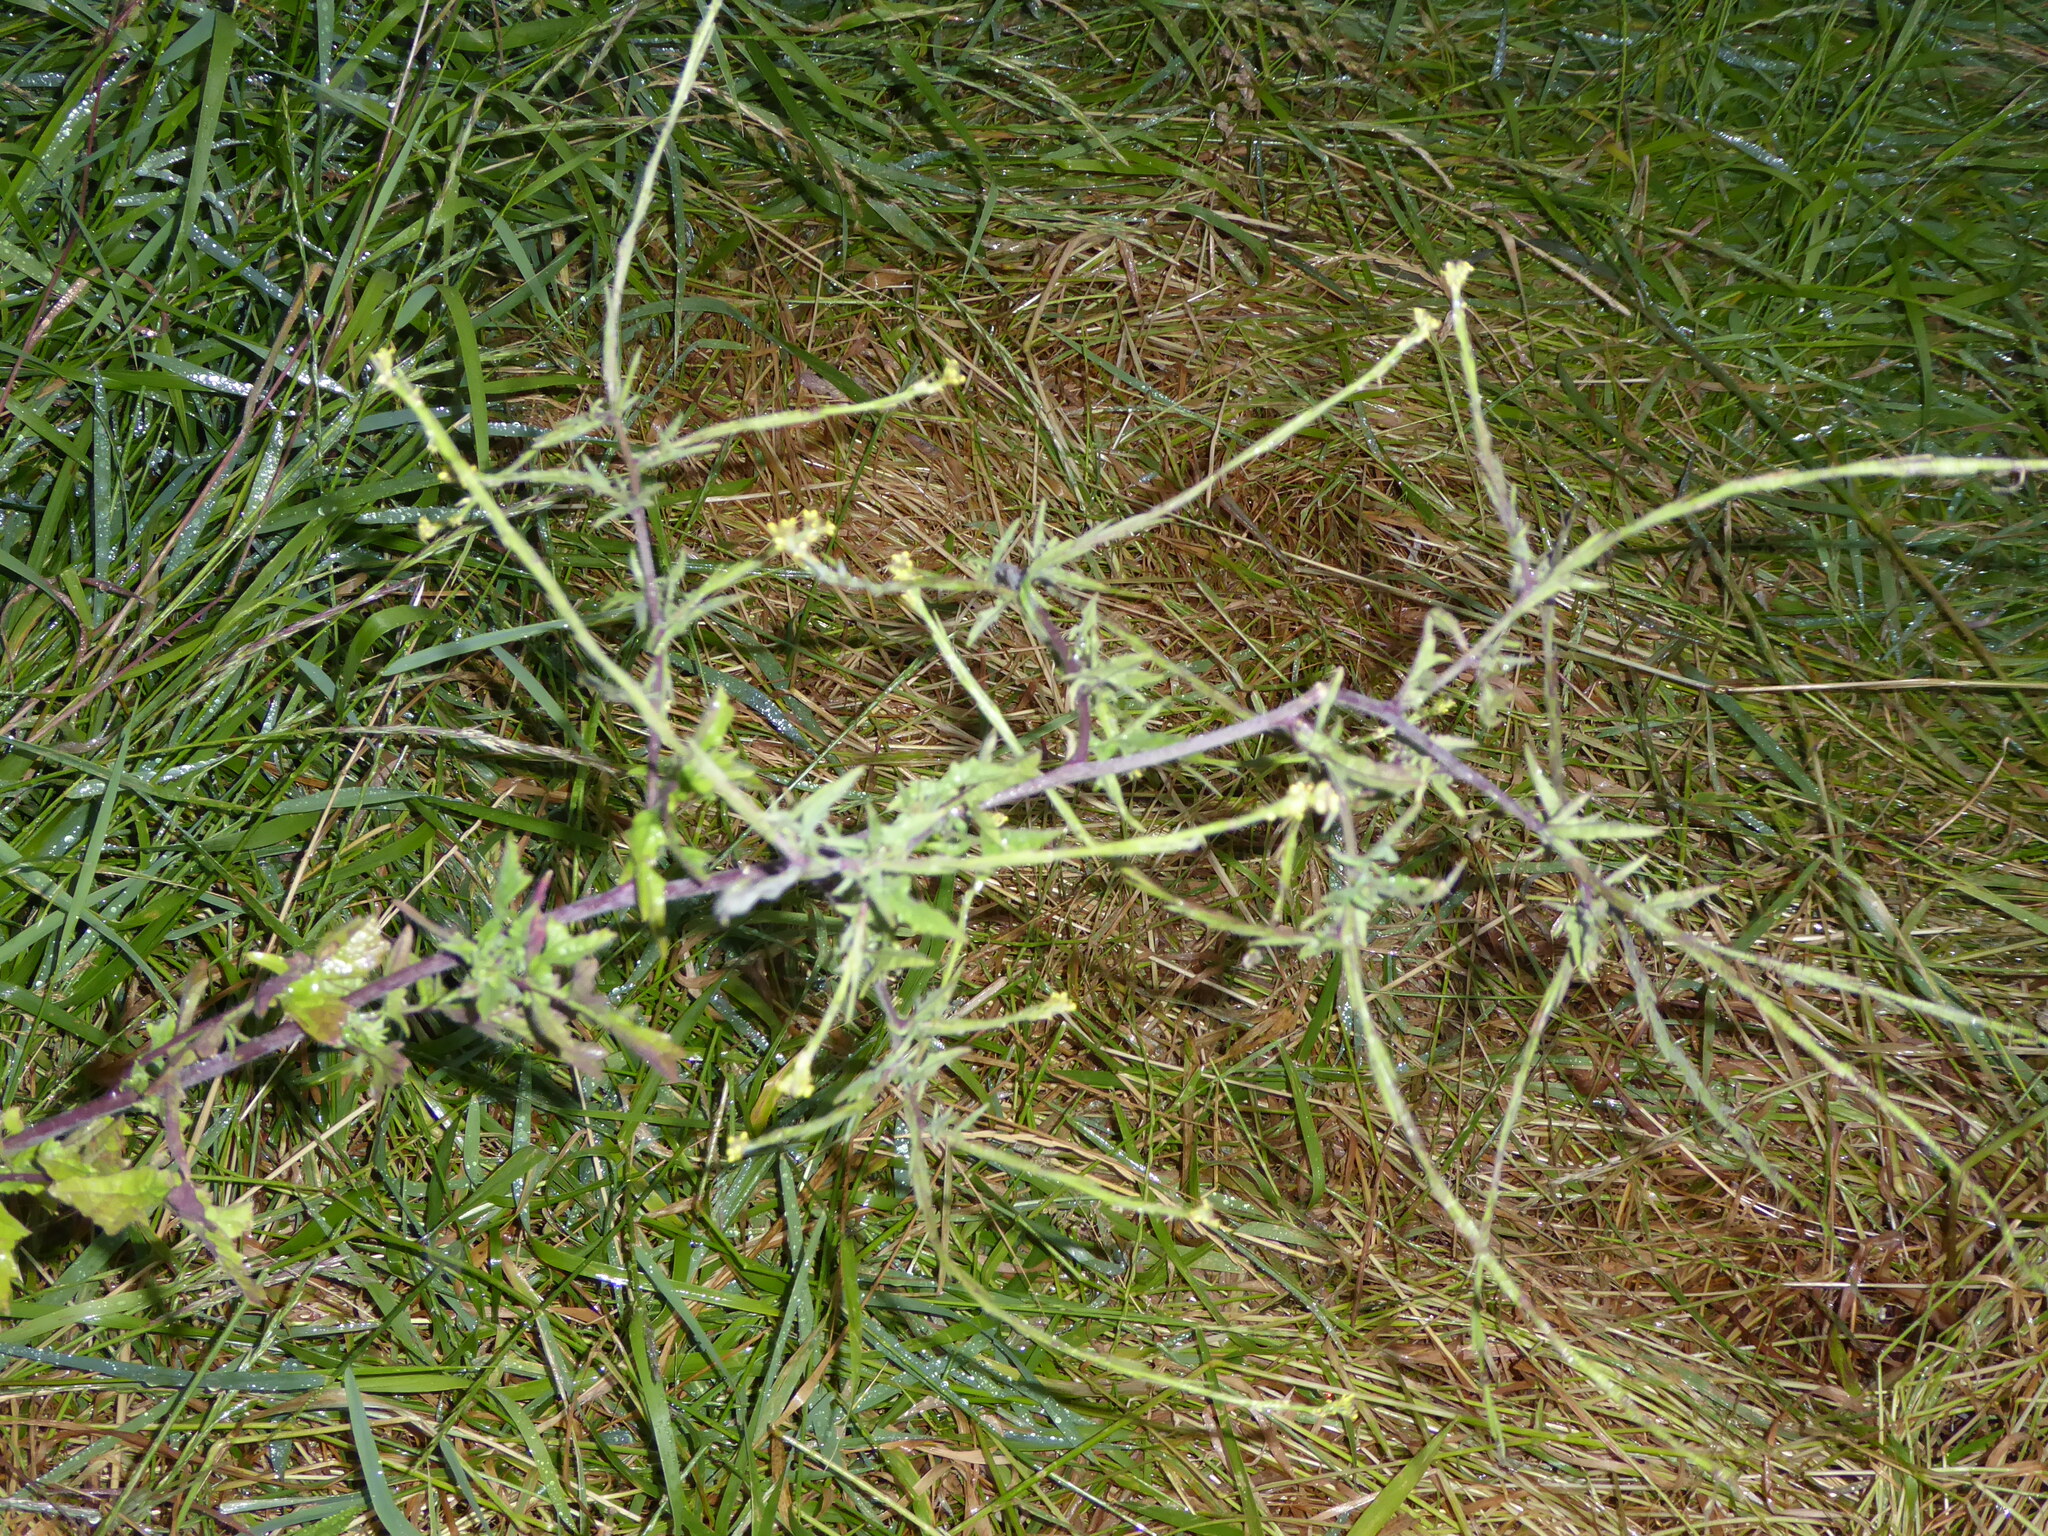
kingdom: Plantae
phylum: Tracheophyta
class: Magnoliopsida
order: Brassicales
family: Brassicaceae
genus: Sisymbrium
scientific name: Sisymbrium officinale
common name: Hedge mustard
